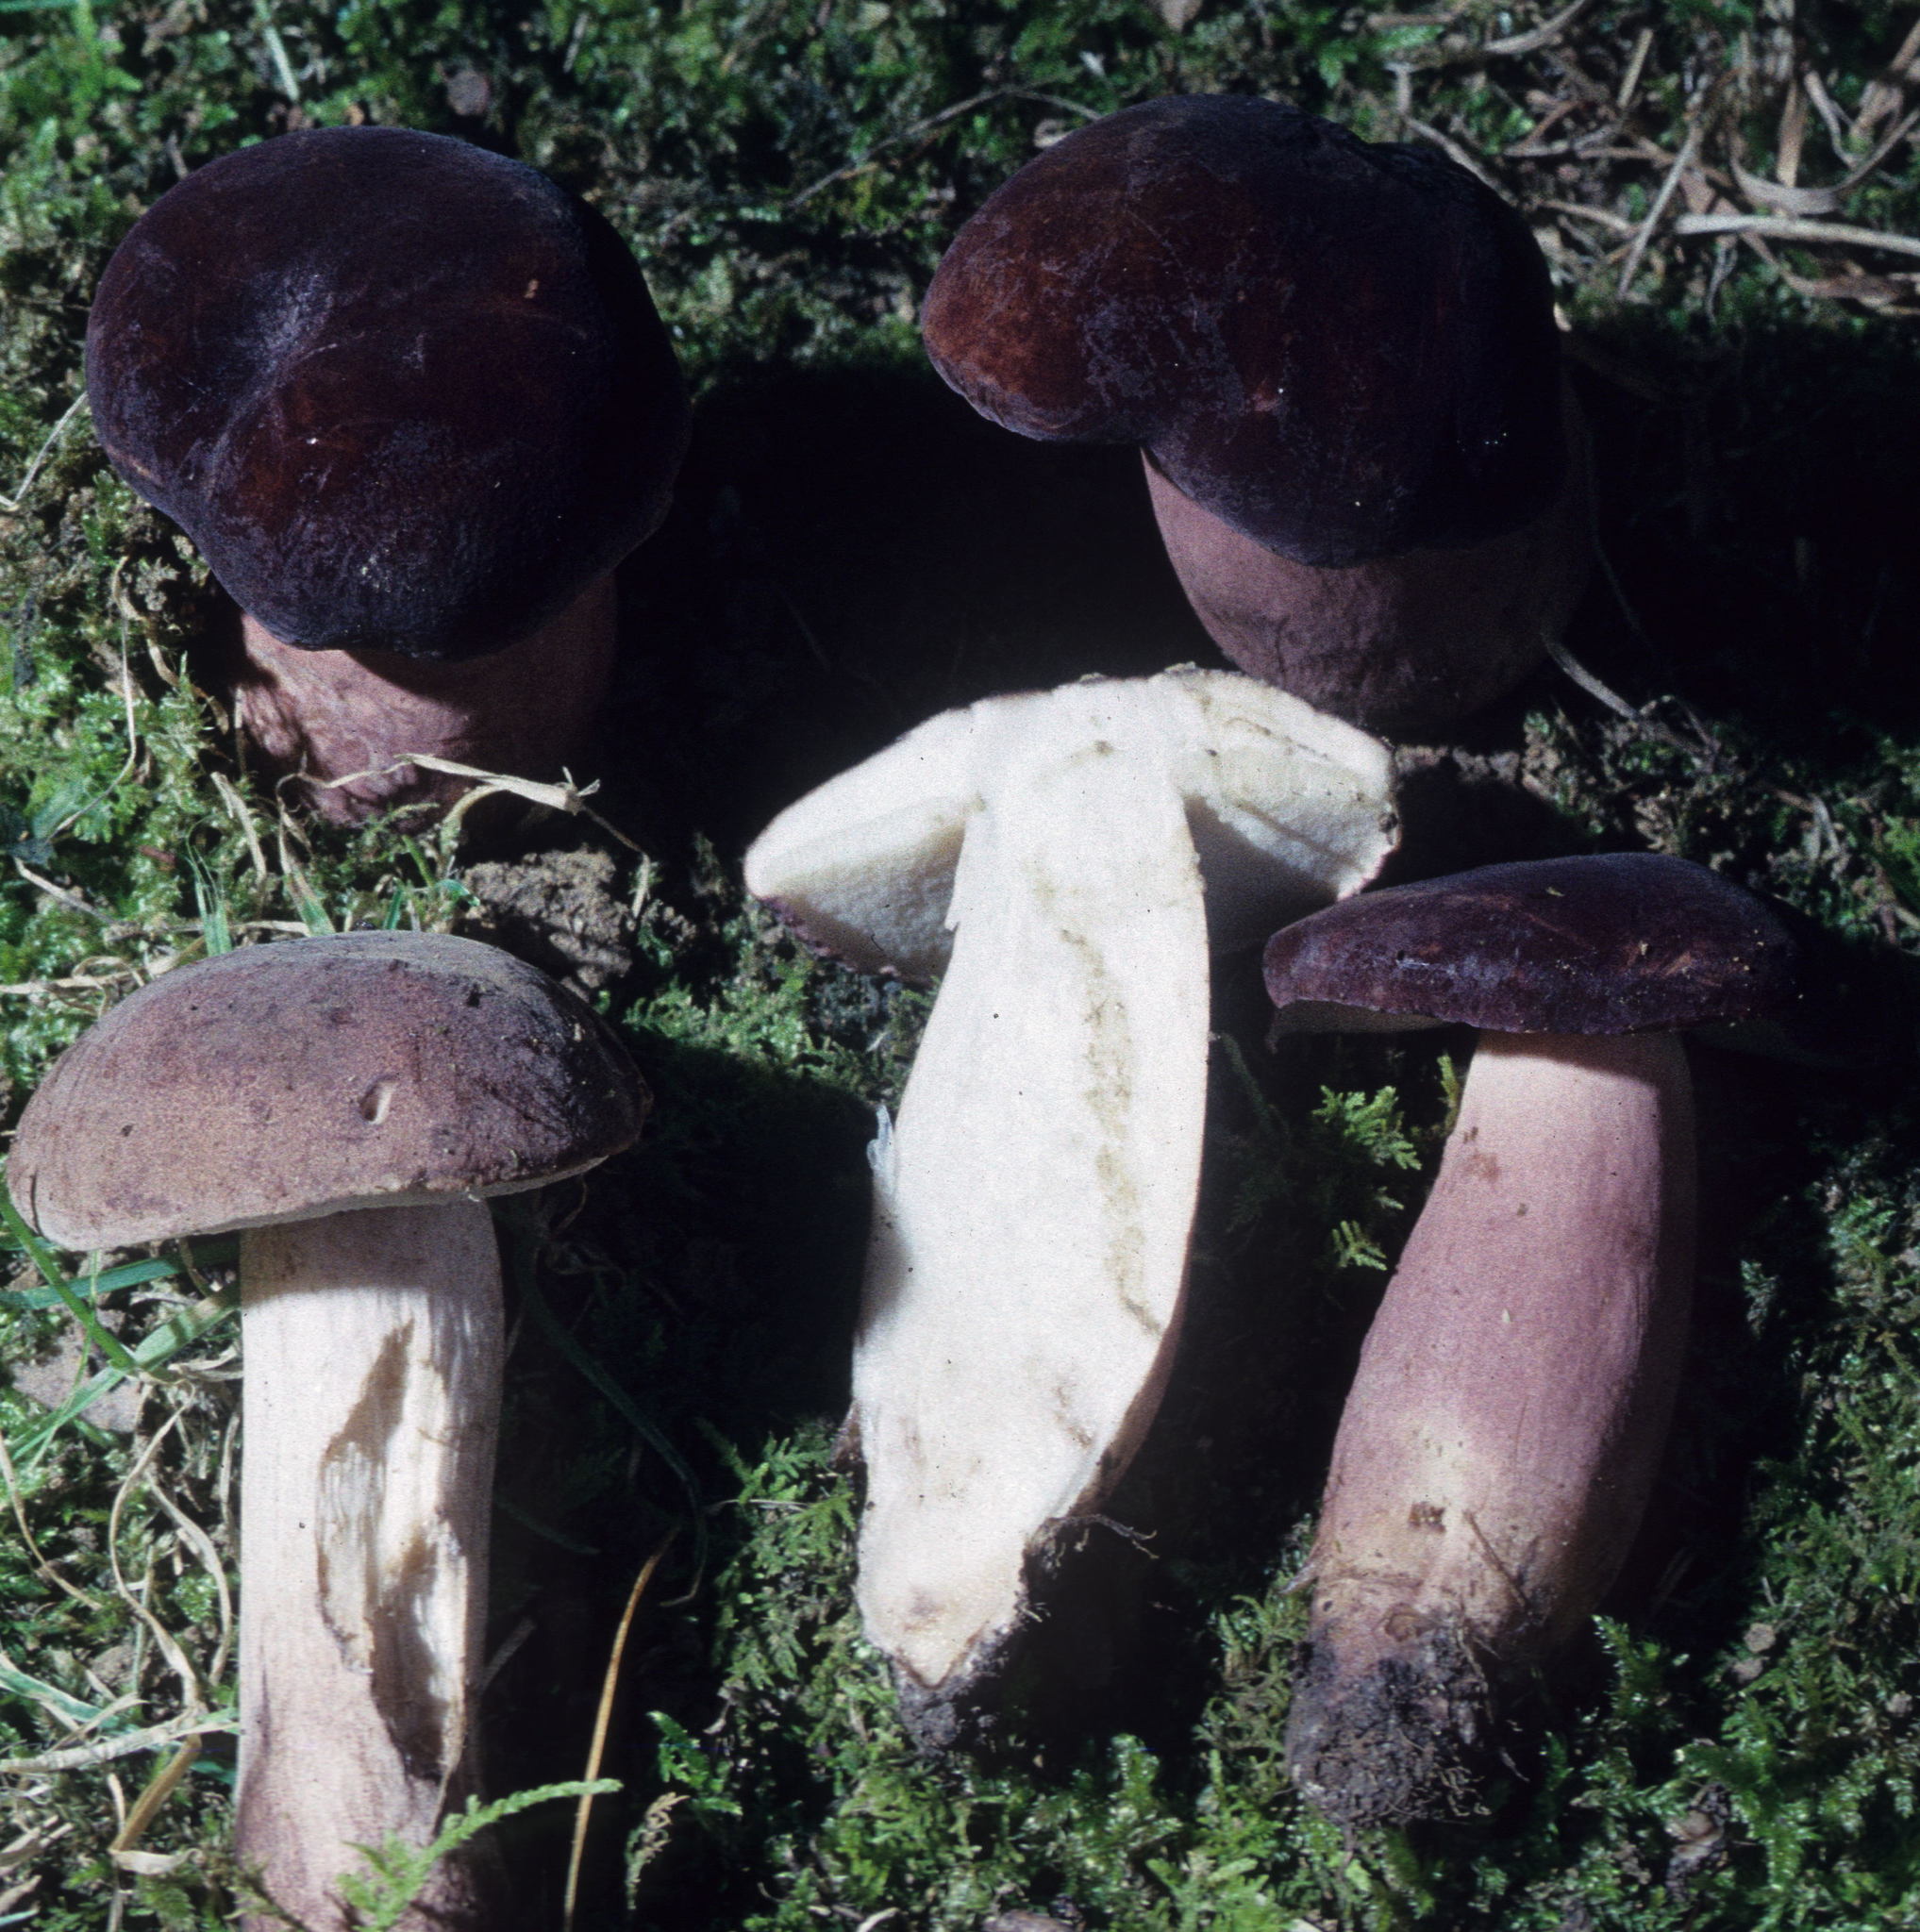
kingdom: Fungi
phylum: Basidiomycota
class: Agaricomycetes
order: Boletales
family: Boletaceae
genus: Xanthoconium
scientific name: Xanthoconium purpureum
